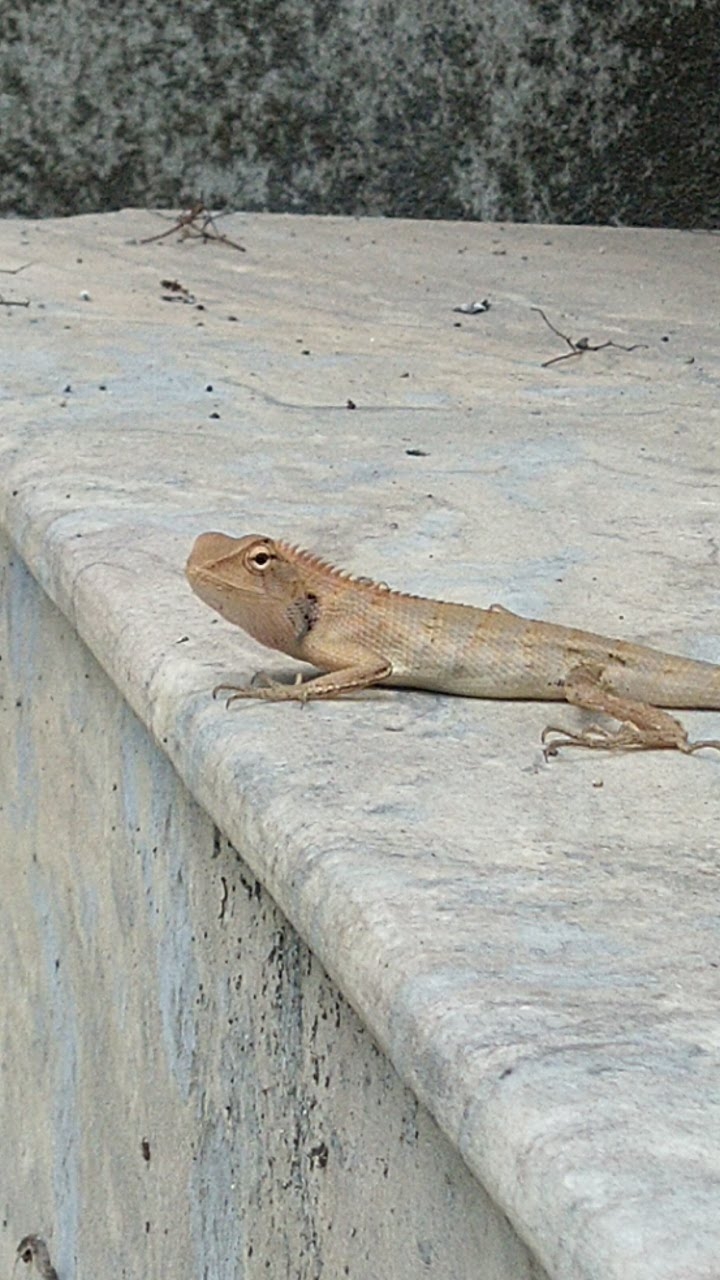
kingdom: Animalia
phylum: Chordata
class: Squamata
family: Agamidae
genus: Calotes
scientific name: Calotes versicolor
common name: Oriental garden lizard
